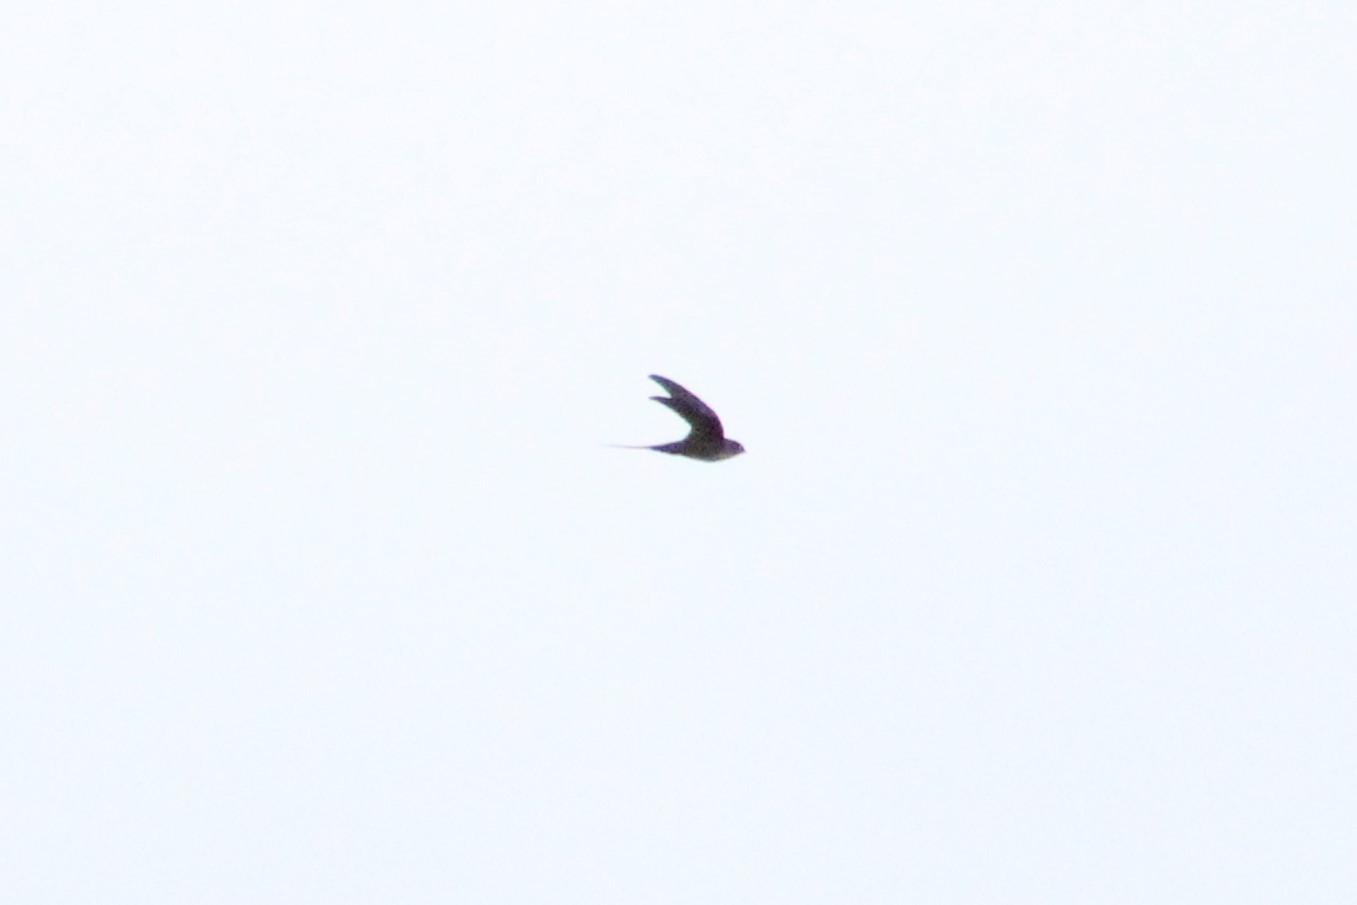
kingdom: Animalia
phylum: Chordata
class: Aves
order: Apodiformes
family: Apodidae
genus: Tachornis
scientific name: Tachornis squamata
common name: Neotropical palm swift
